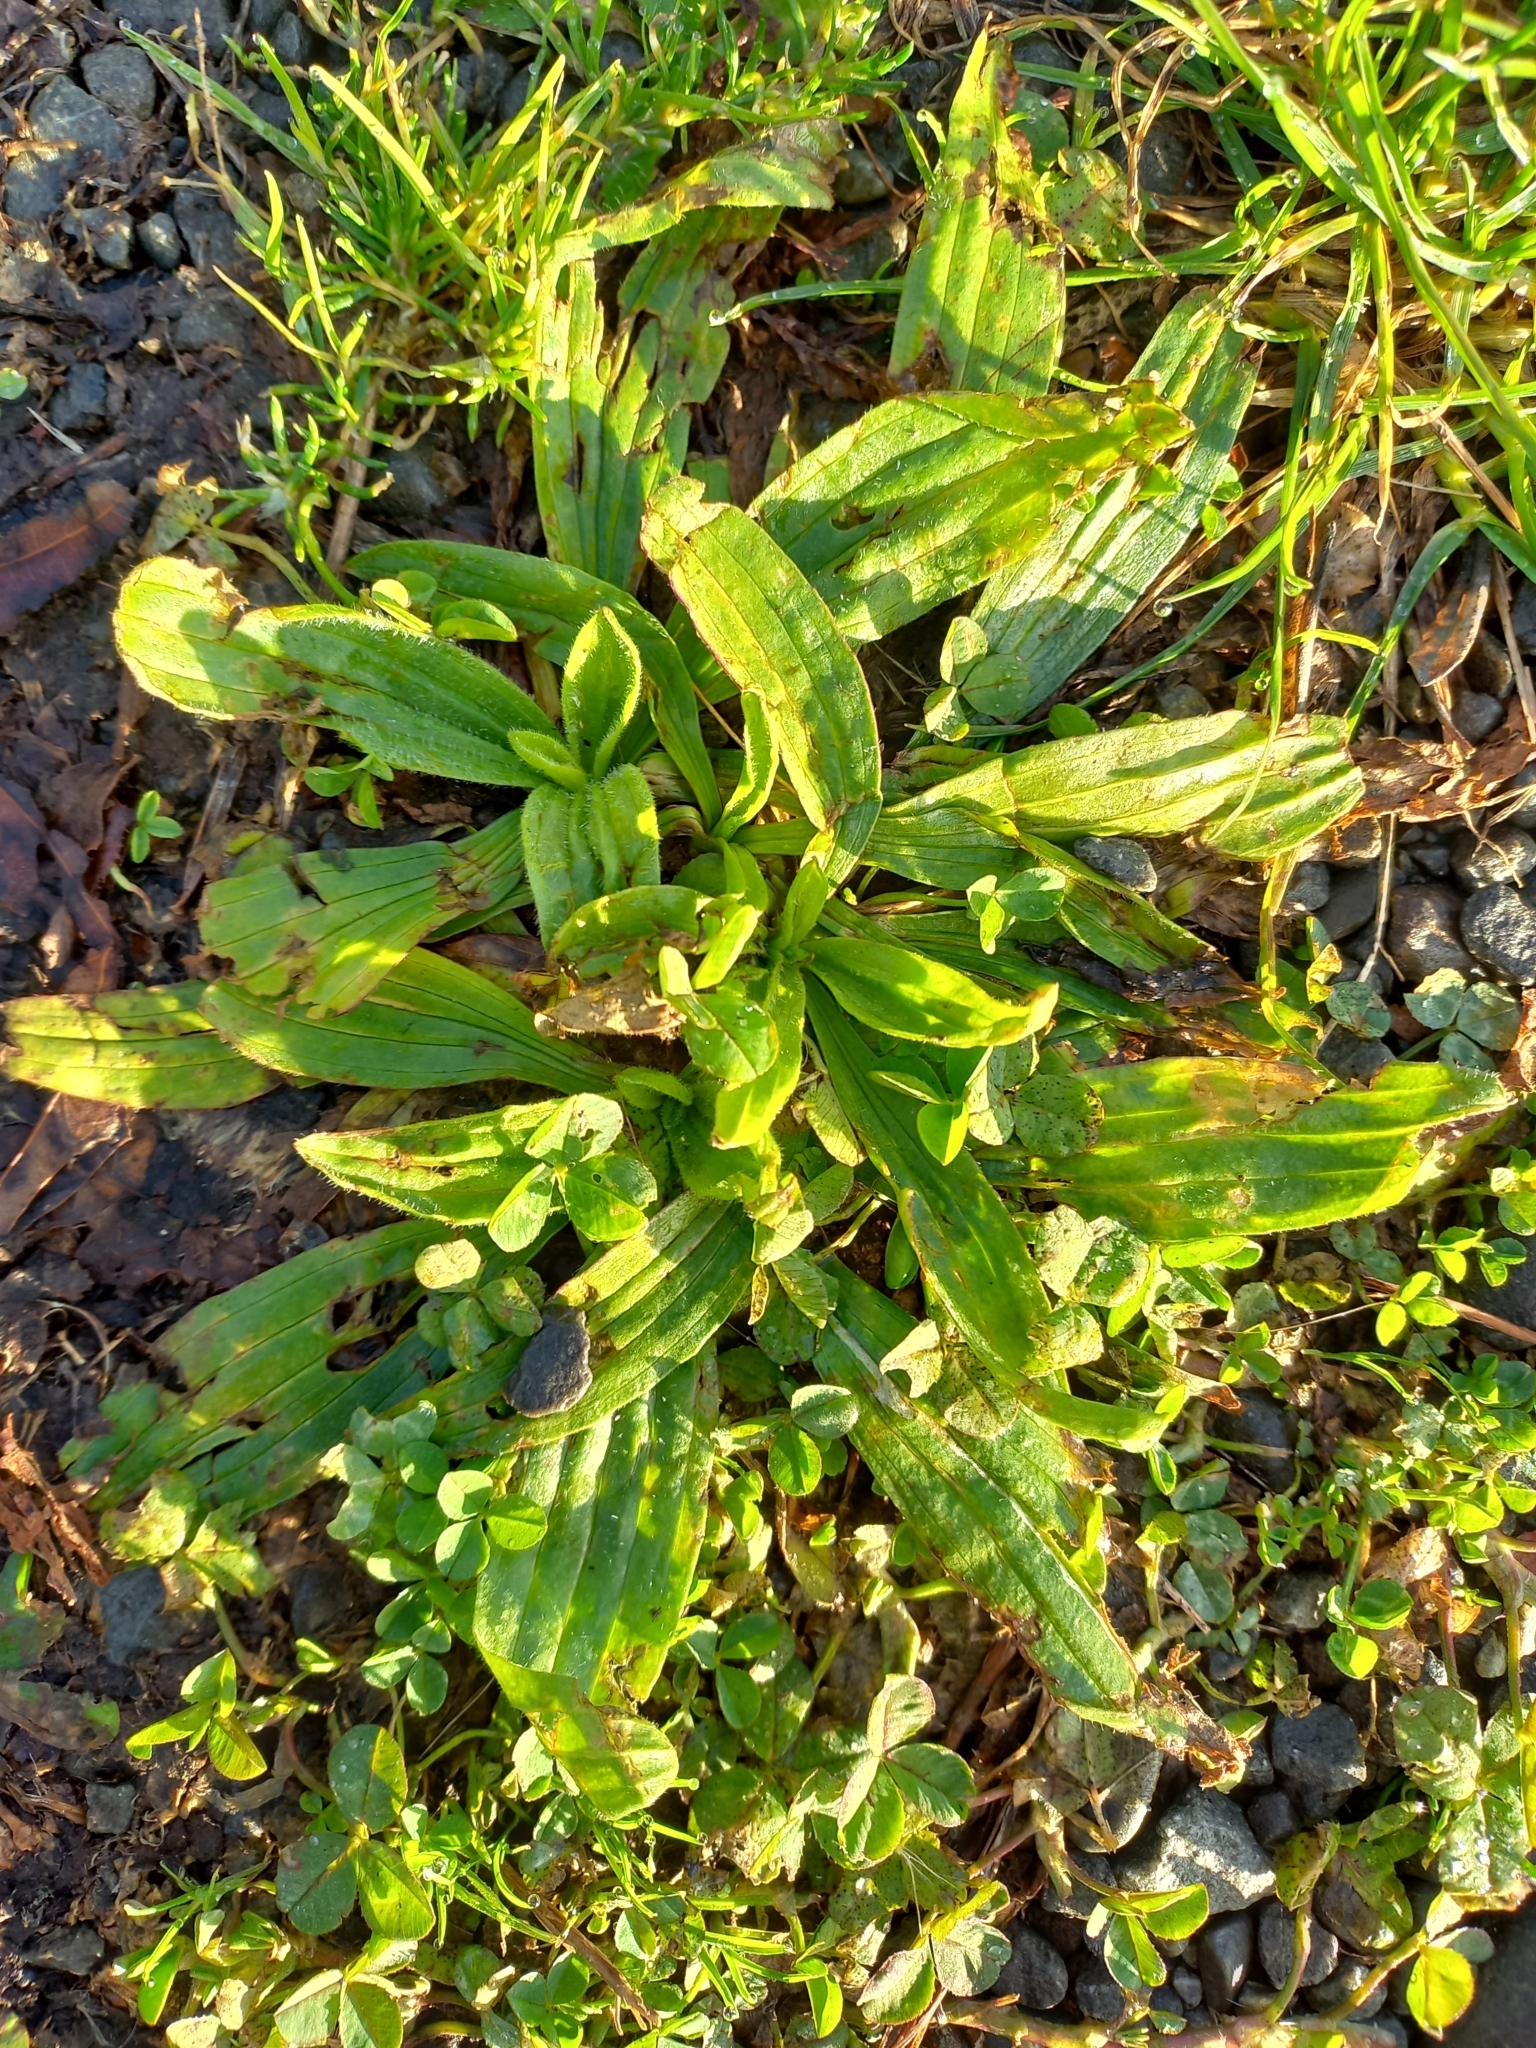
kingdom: Plantae
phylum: Tracheophyta
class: Magnoliopsida
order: Lamiales
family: Plantaginaceae
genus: Plantago
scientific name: Plantago lanceolata
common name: Ribwort plantain
